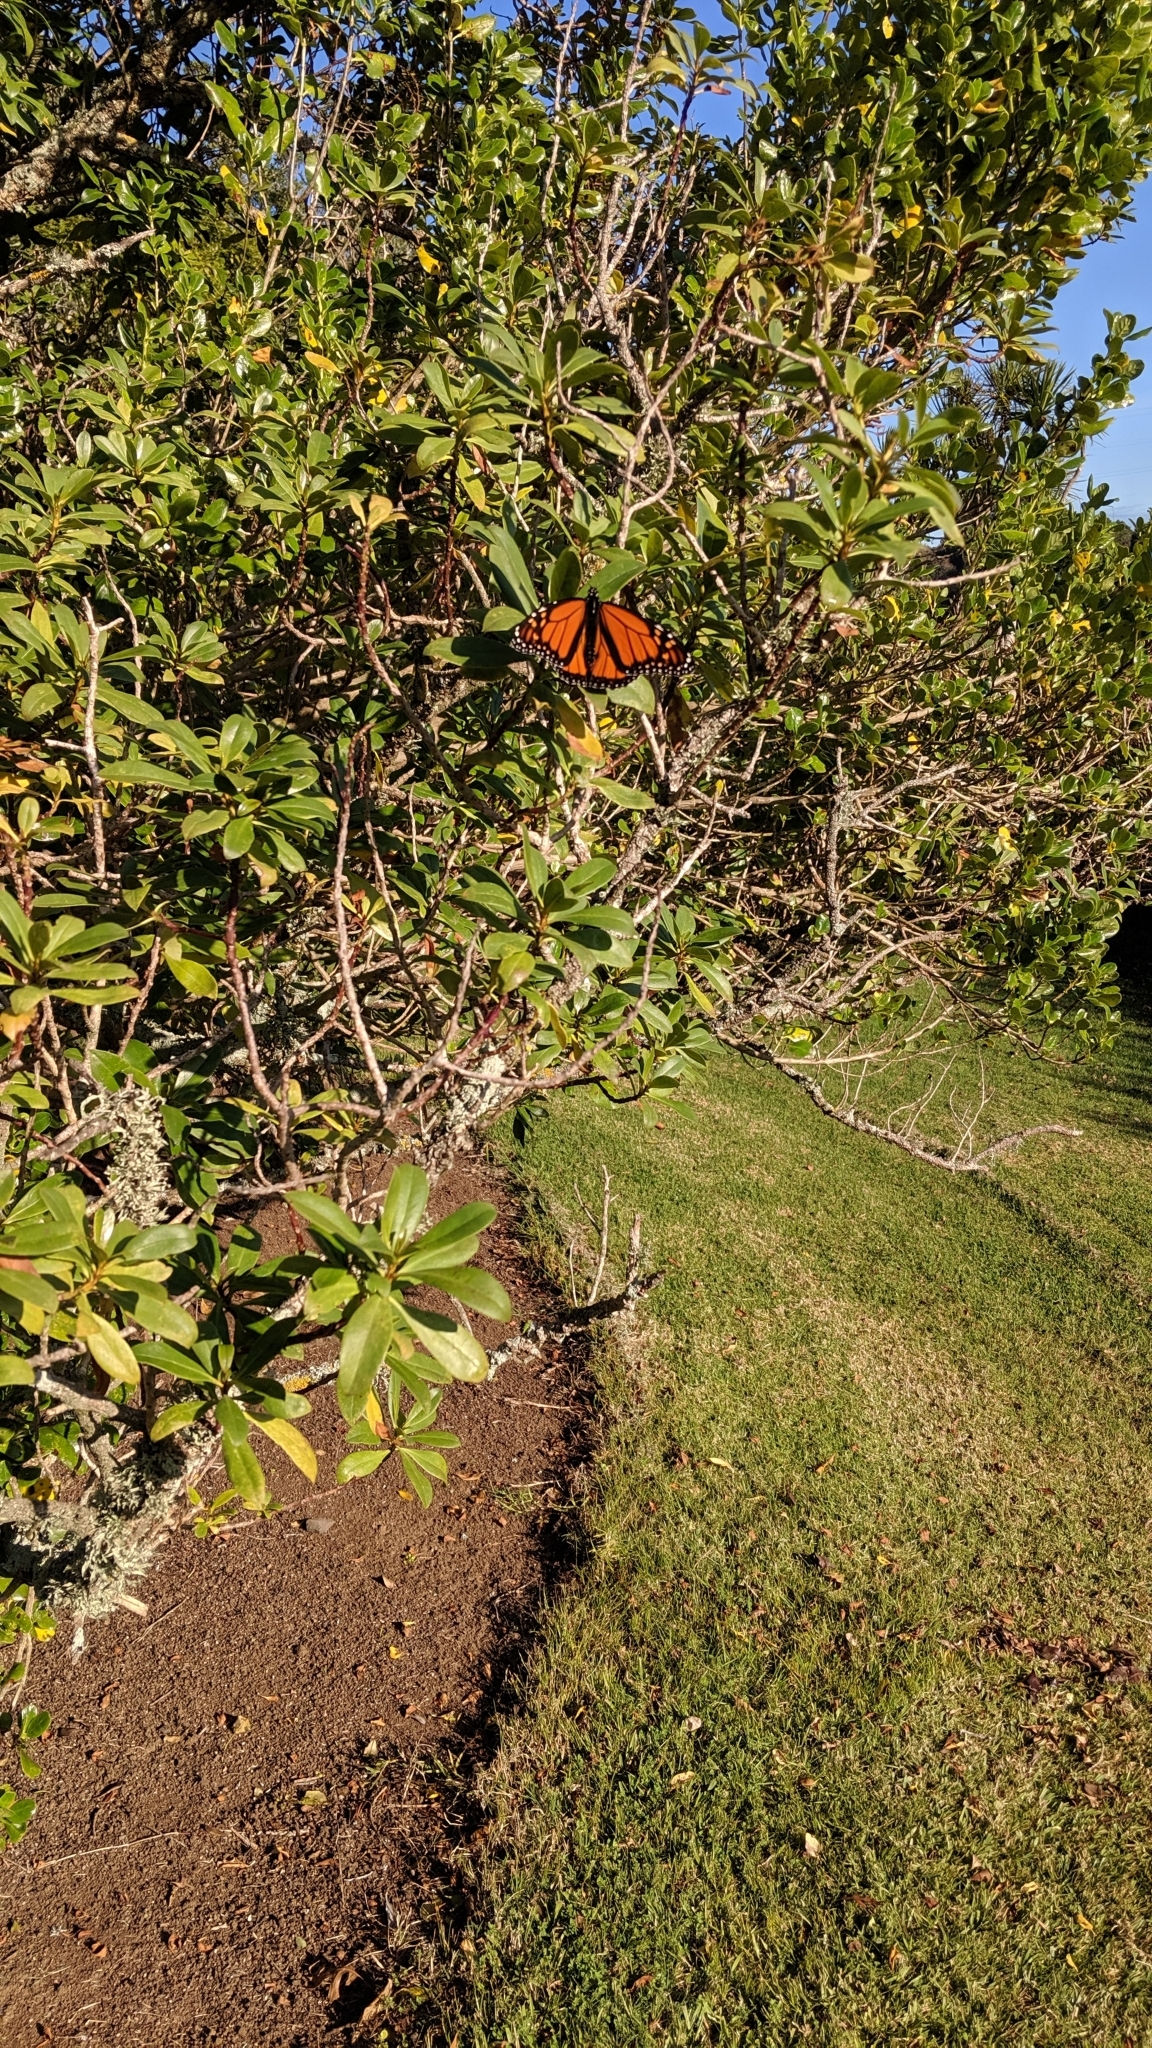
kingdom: Animalia
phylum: Arthropoda
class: Insecta
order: Lepidoptera
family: Nymphalidae
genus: Danaus
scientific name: Danaus plexippus
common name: Monarch
